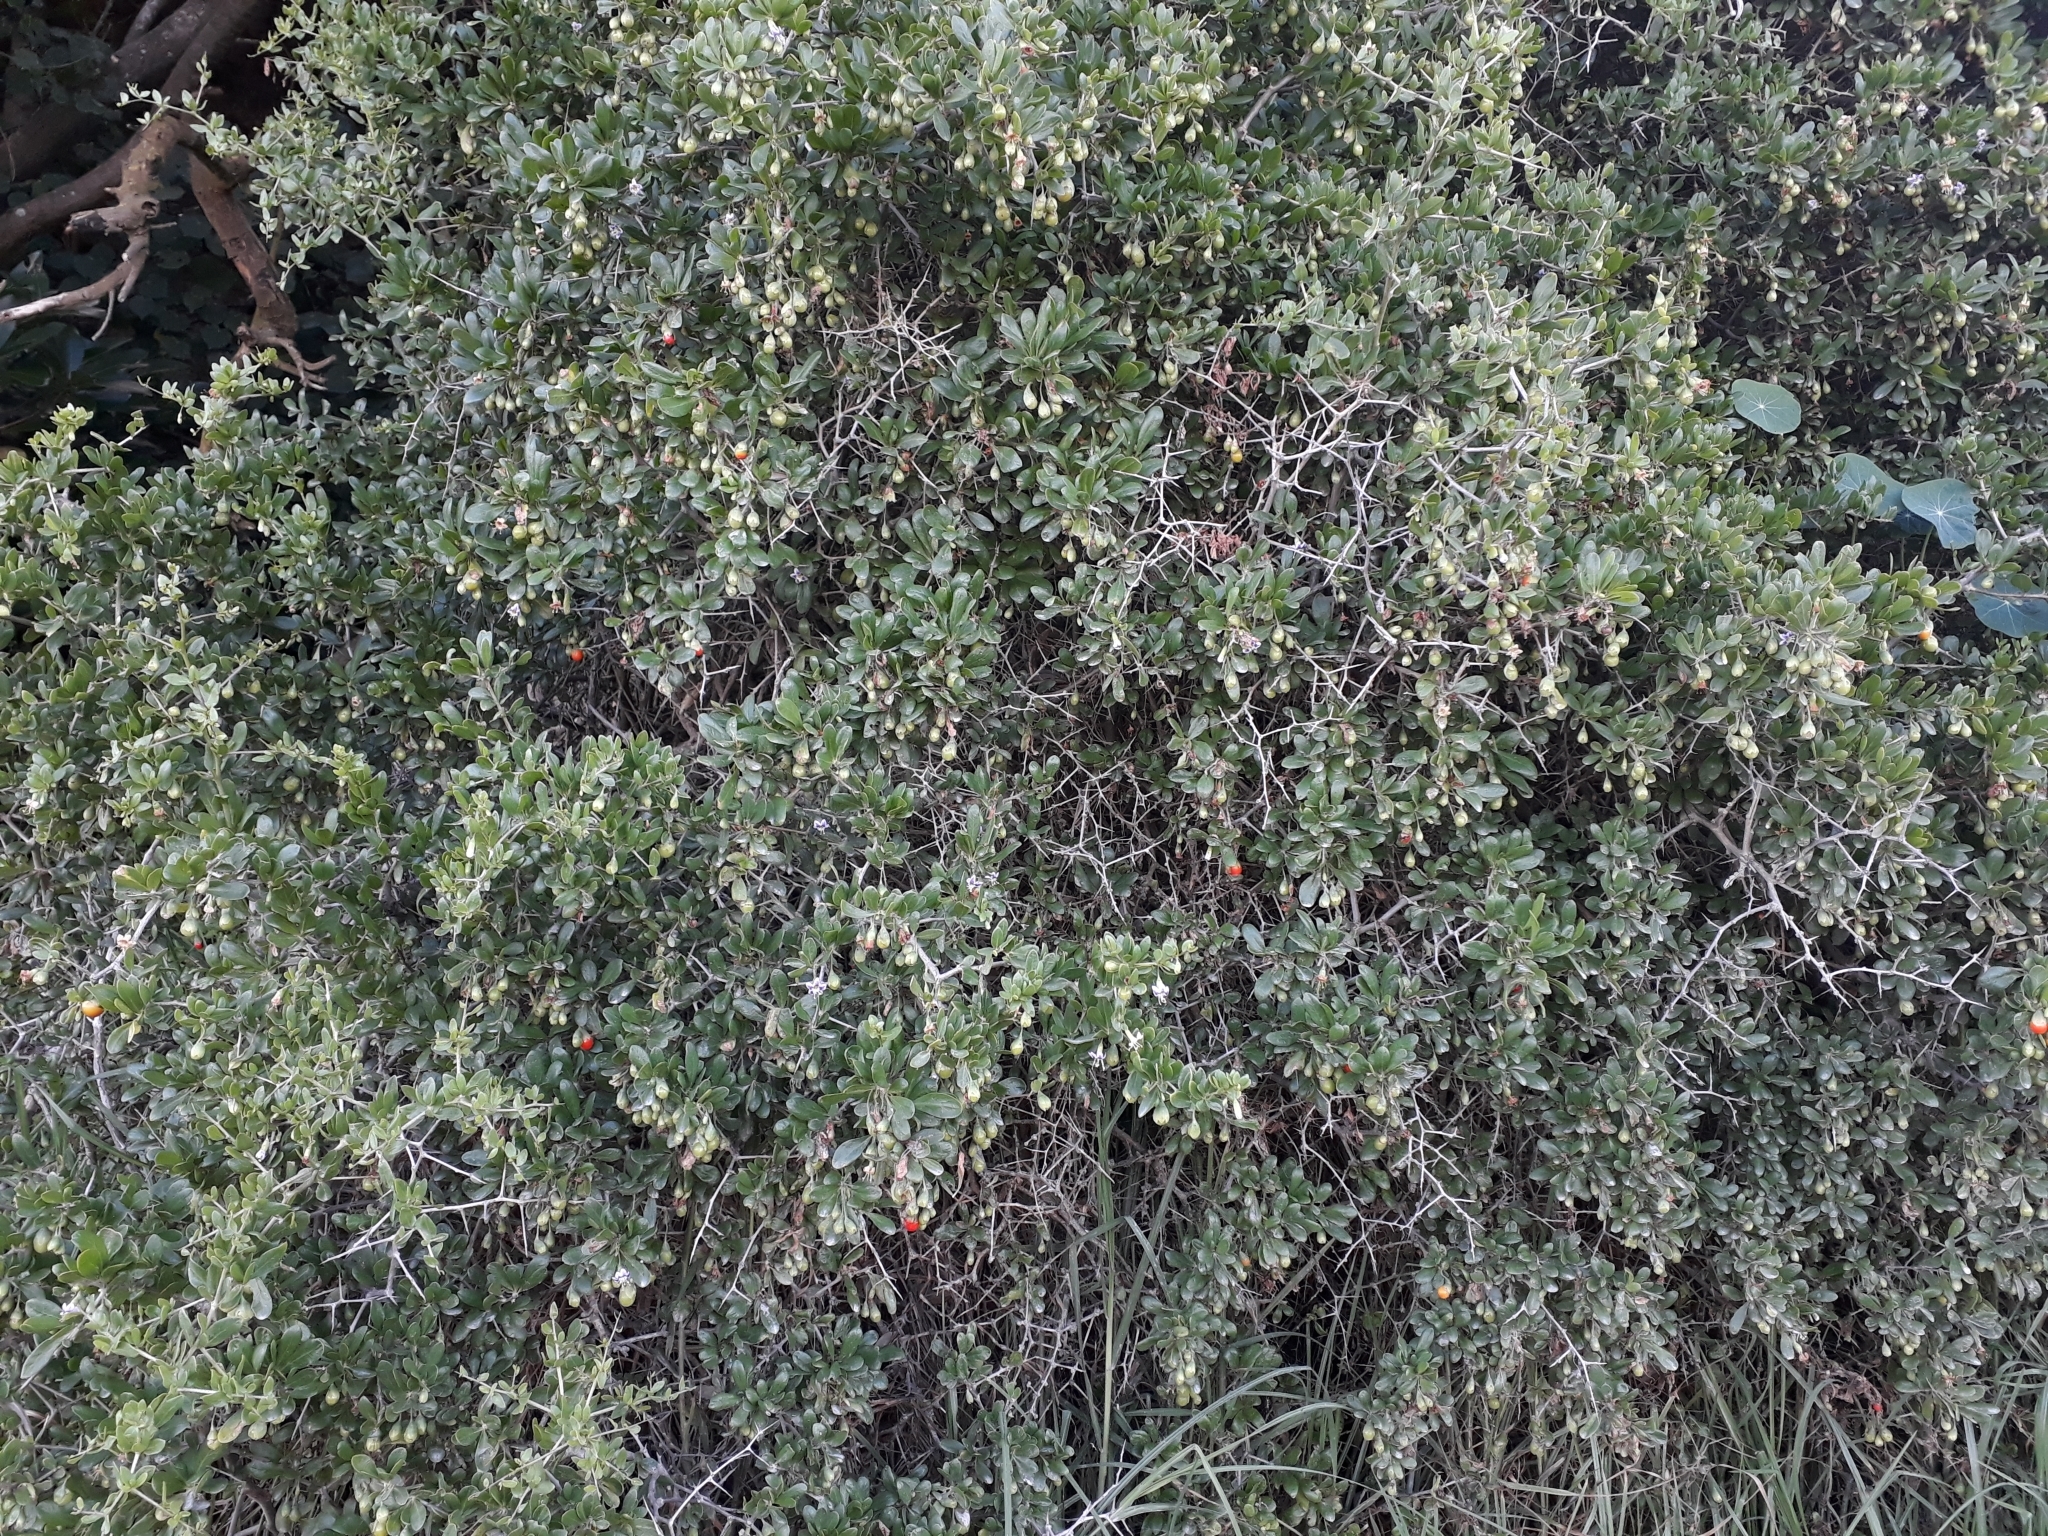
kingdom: Plantae
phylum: Tracheophyta
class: Magnoliopsida
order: Solanales
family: Solanaceae
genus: Lycium
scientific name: Lycium ferocissimum
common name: African boxthorn
